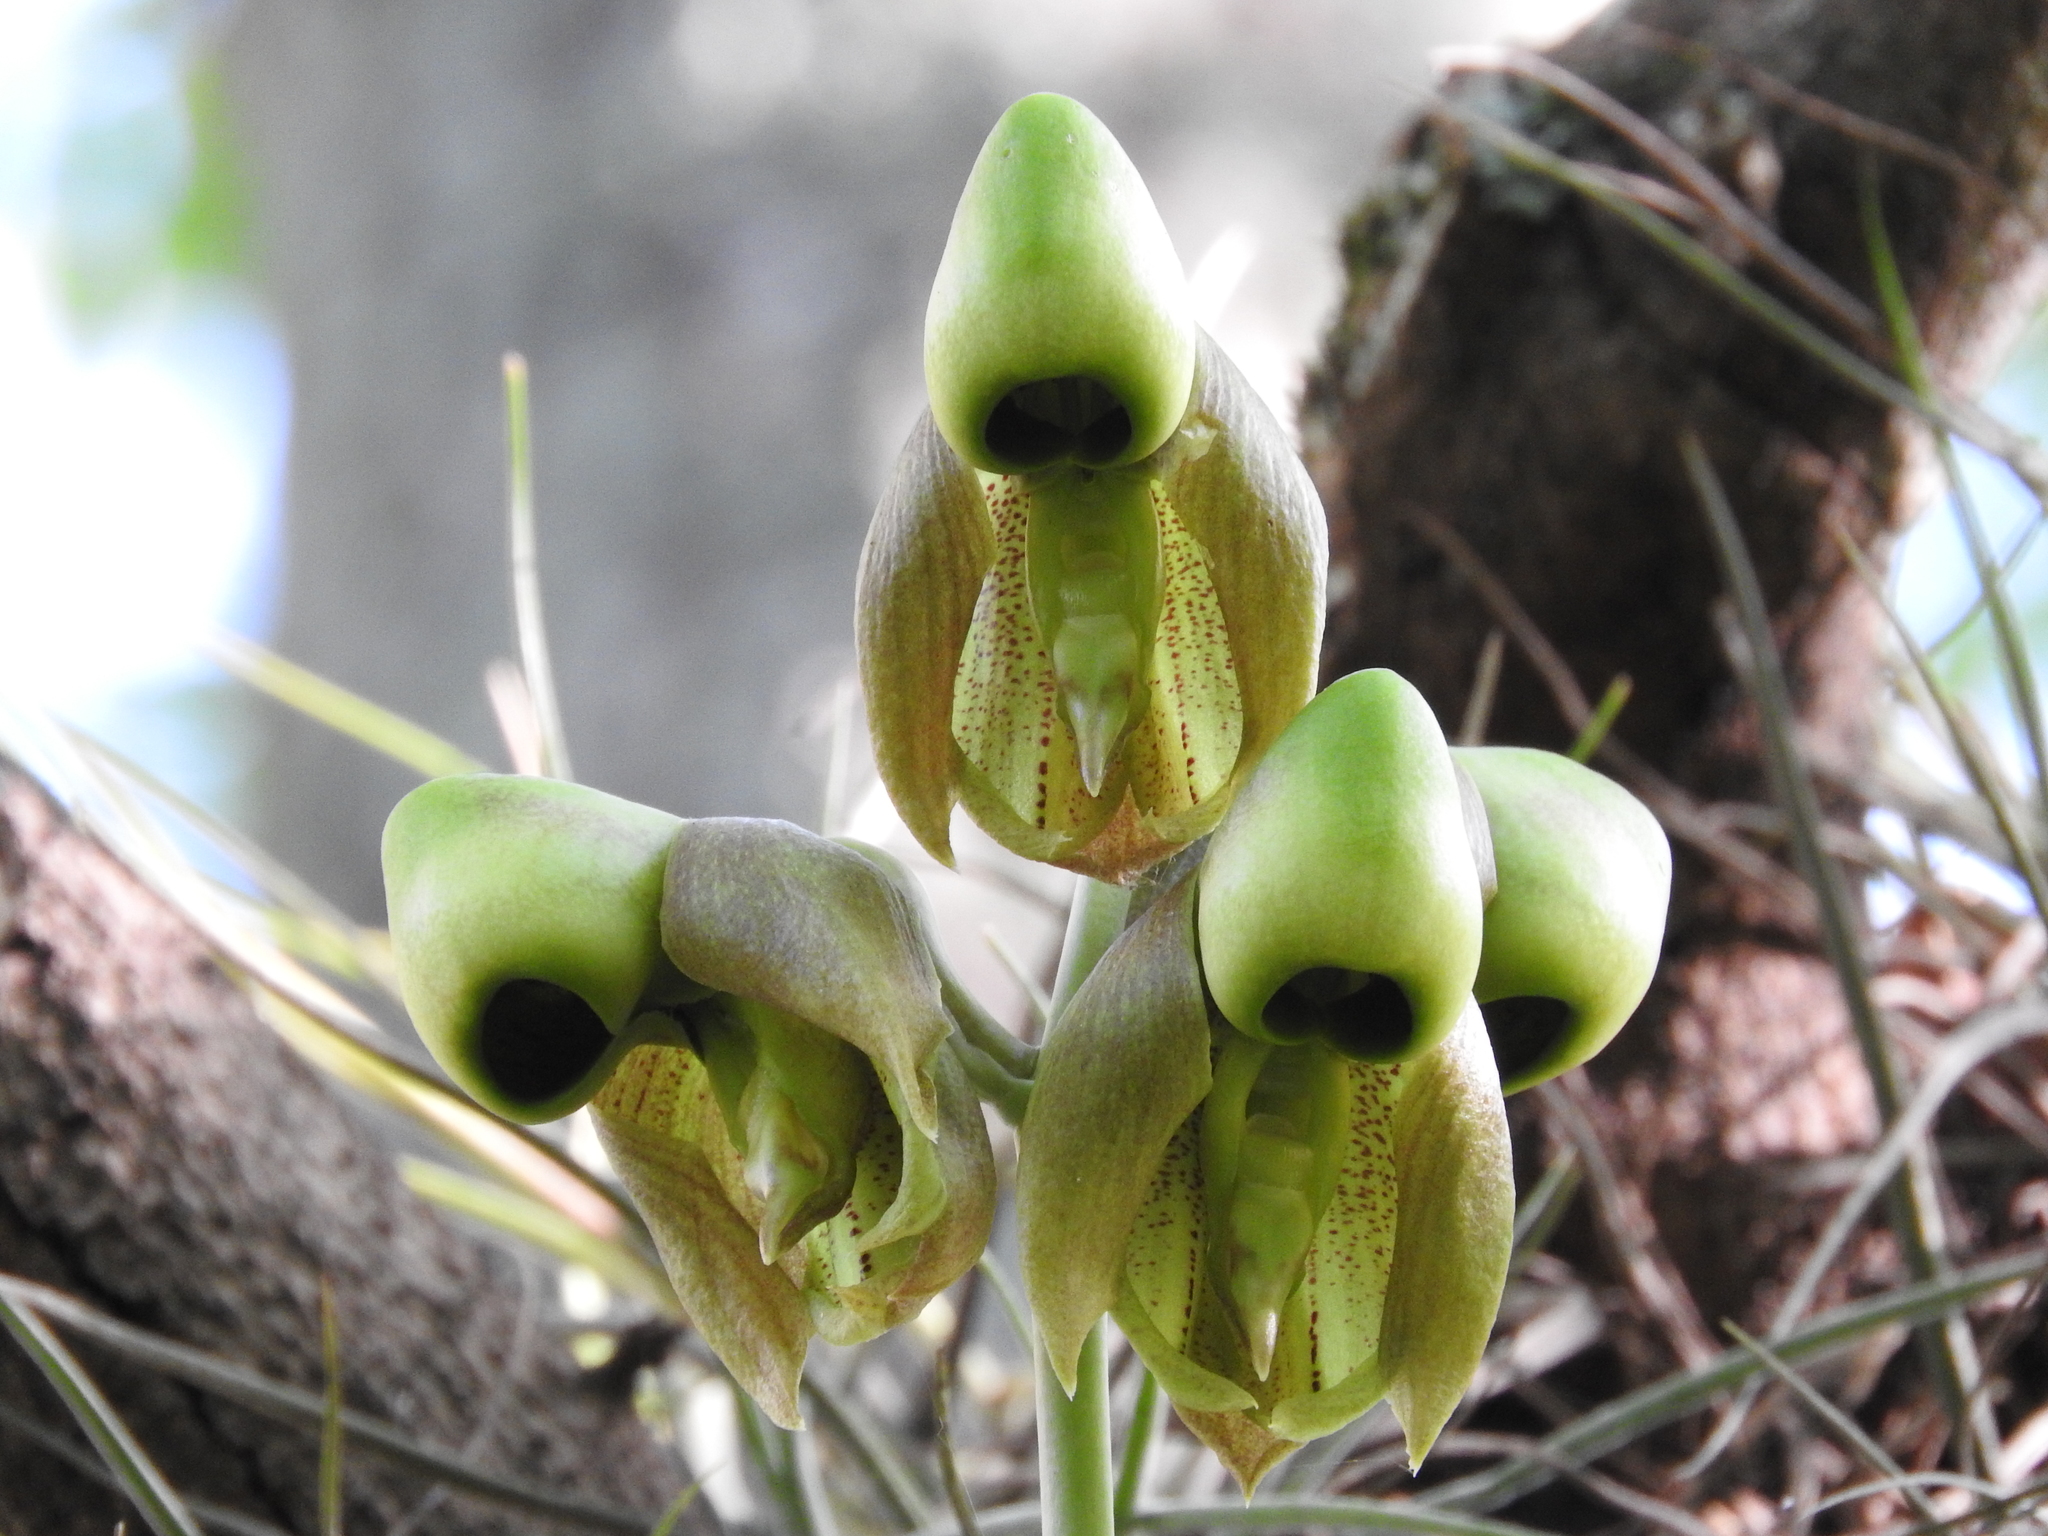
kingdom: Plantae
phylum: Tracheophyta
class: Liliopsida
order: Asparagales
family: Orchidaceae
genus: Catasetum
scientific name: Catasetum integerrimum
